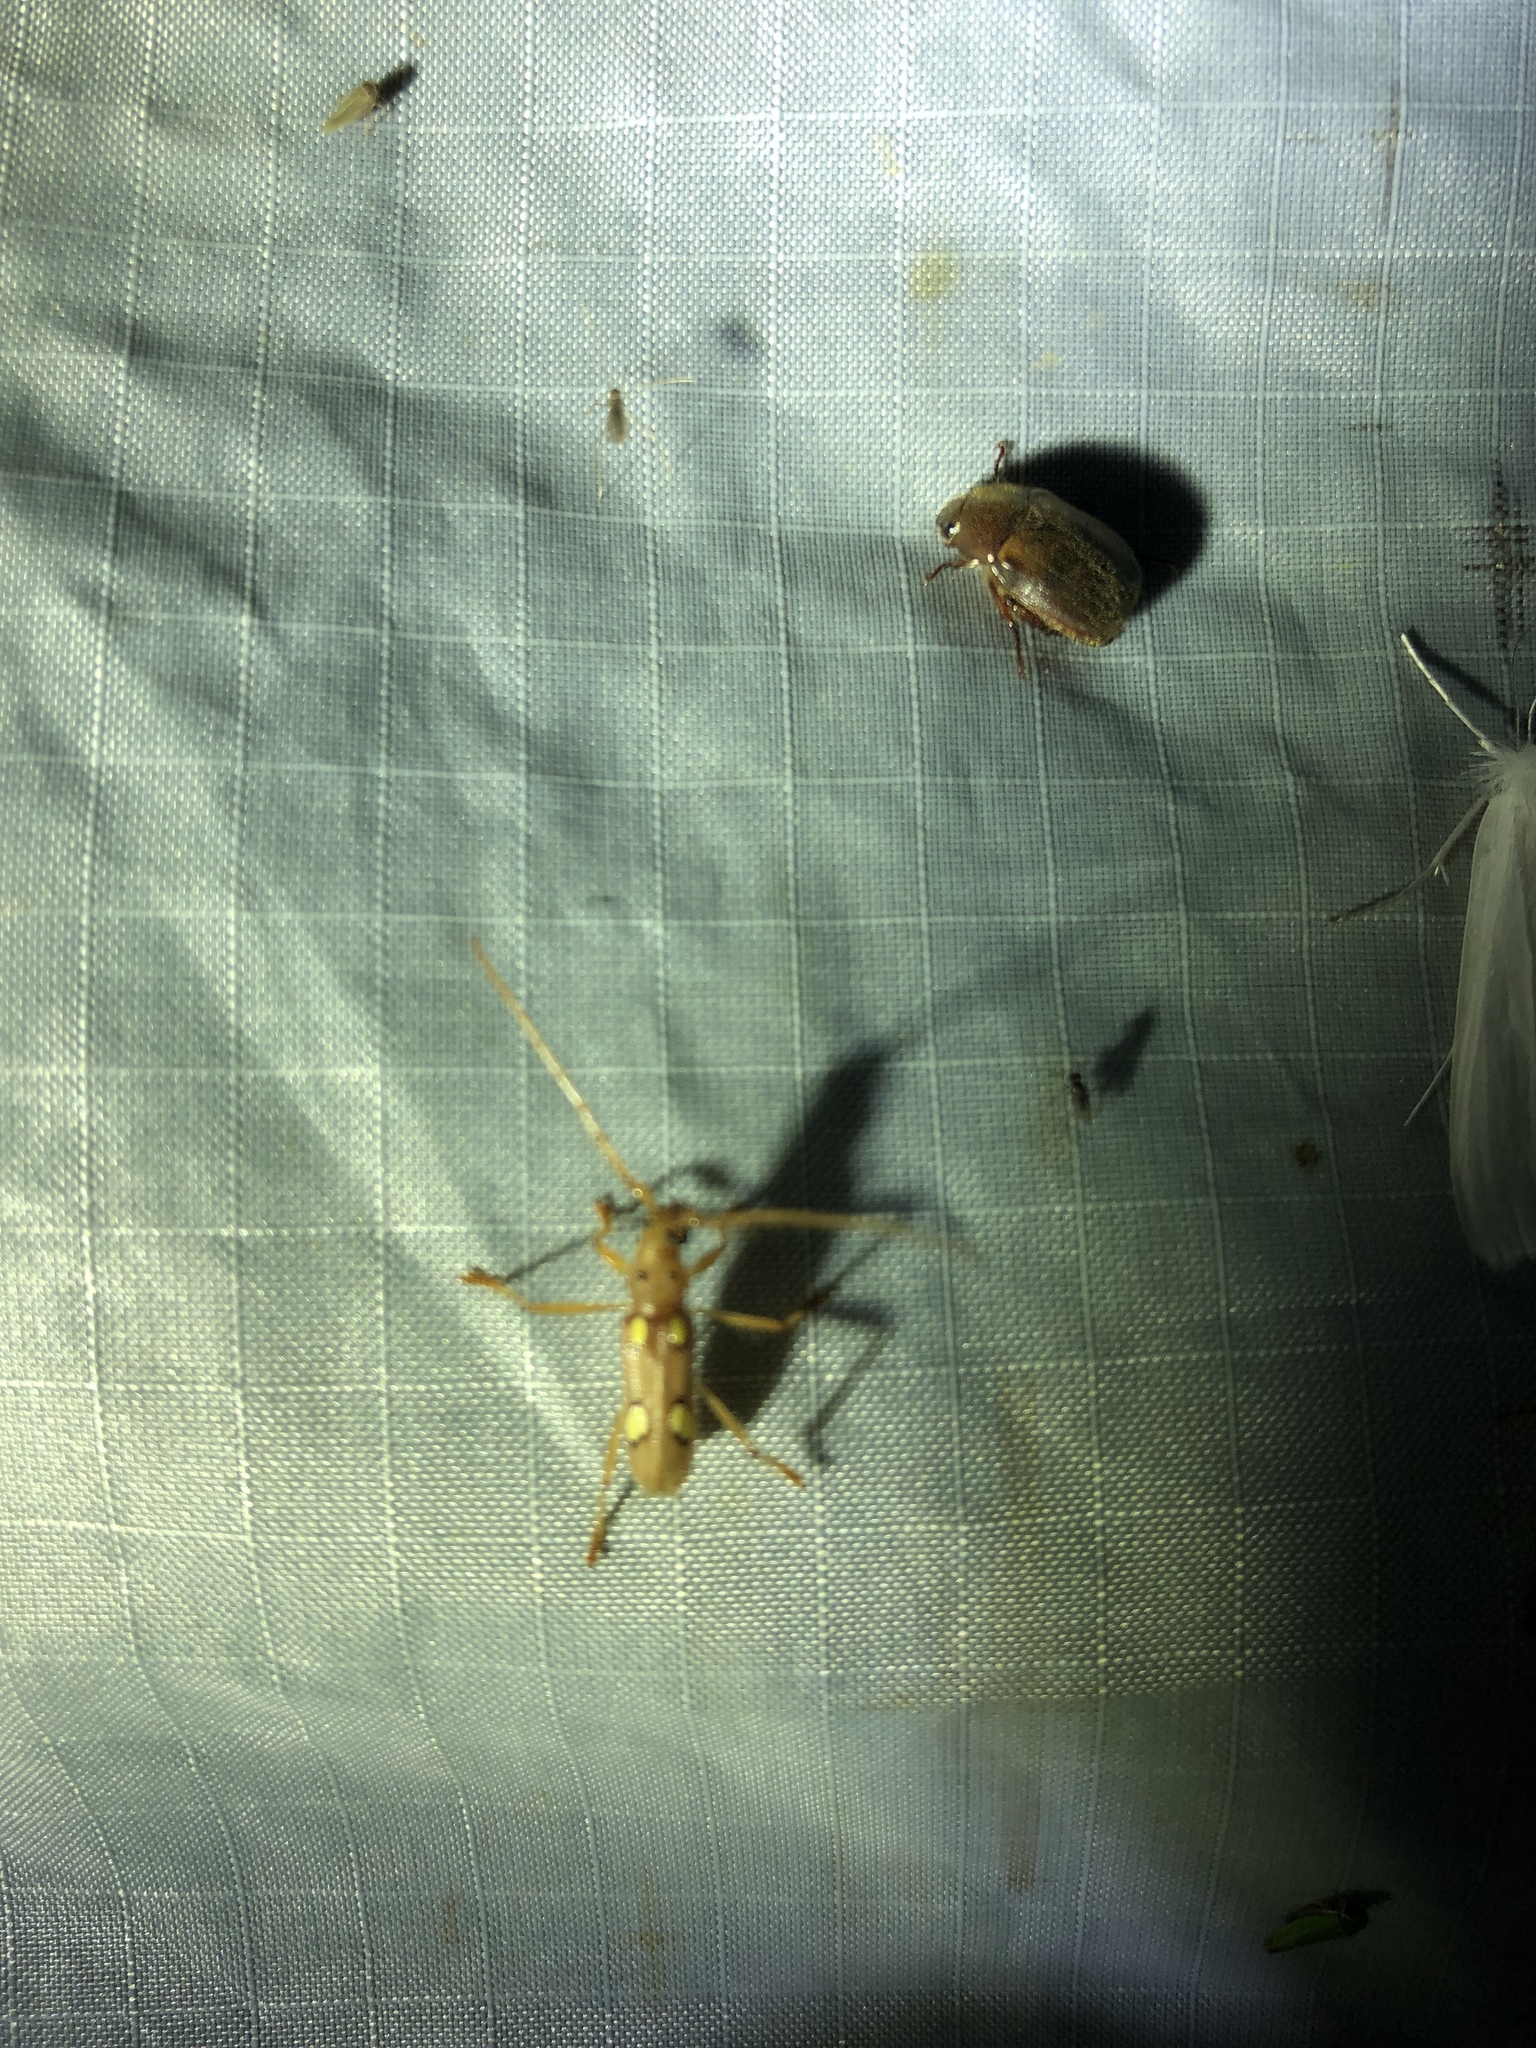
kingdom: Animalia
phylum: Arthropoda
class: Insecta
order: Coleoptera
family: Cerambycidae
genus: Eburodacrys
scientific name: Eburodacrys callixantha
